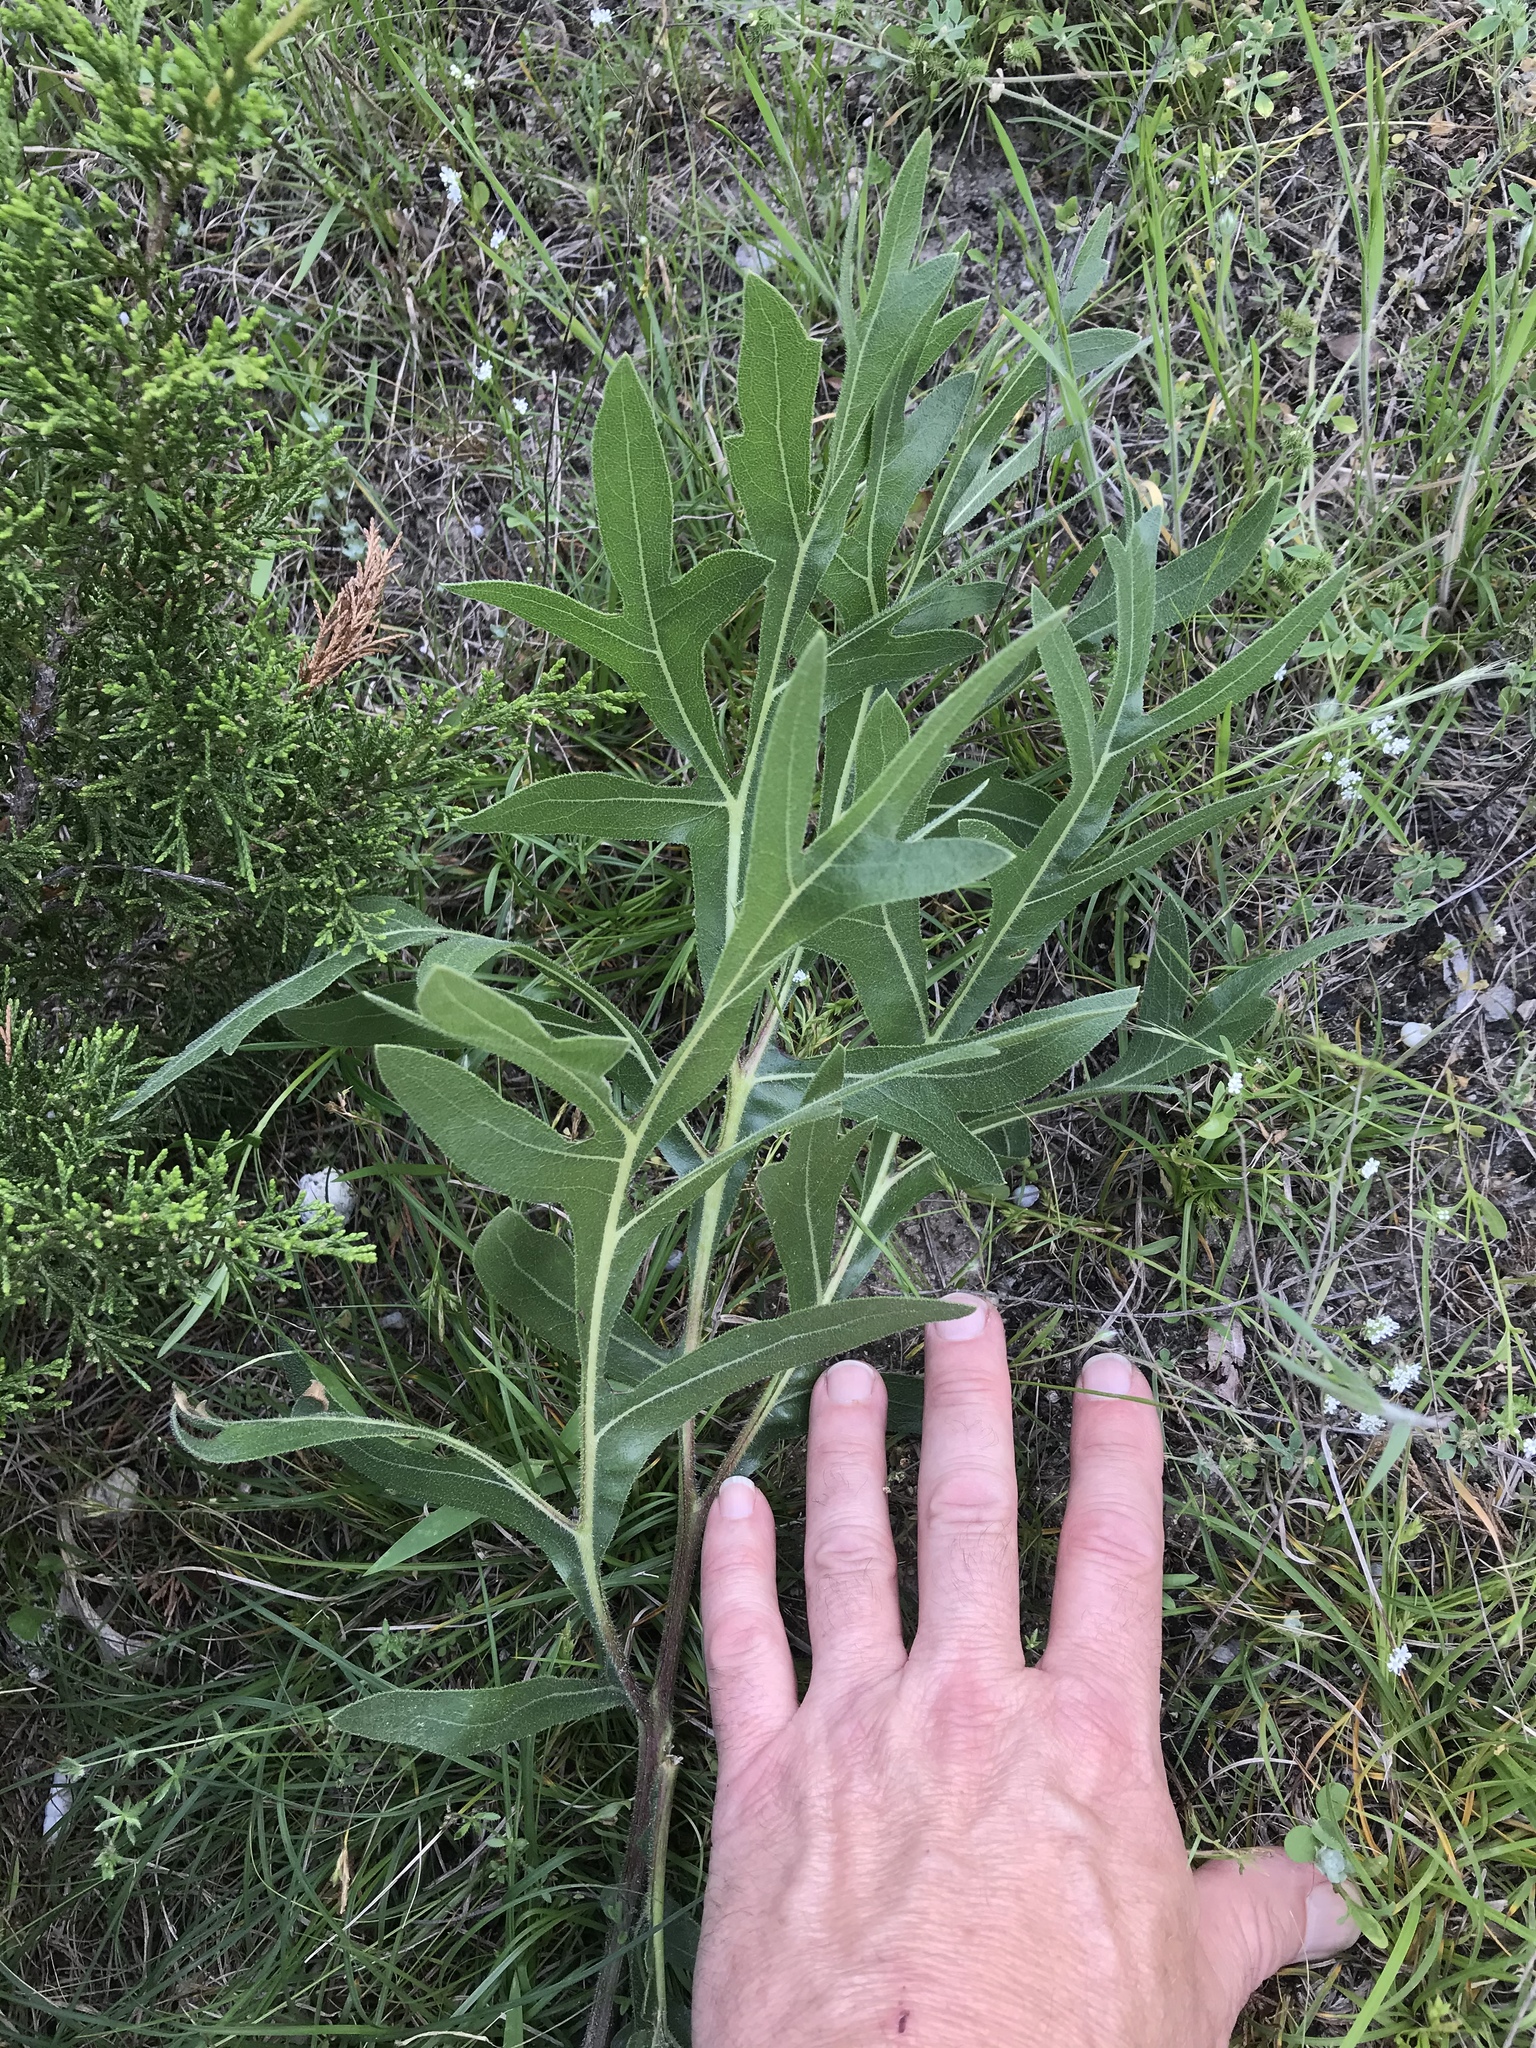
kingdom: Plantae
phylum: Tracheophyta
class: Magnoliopsida
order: Asterales
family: Asteraceae
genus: Silphium
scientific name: Silphium albiflorum
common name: White rosinweed
